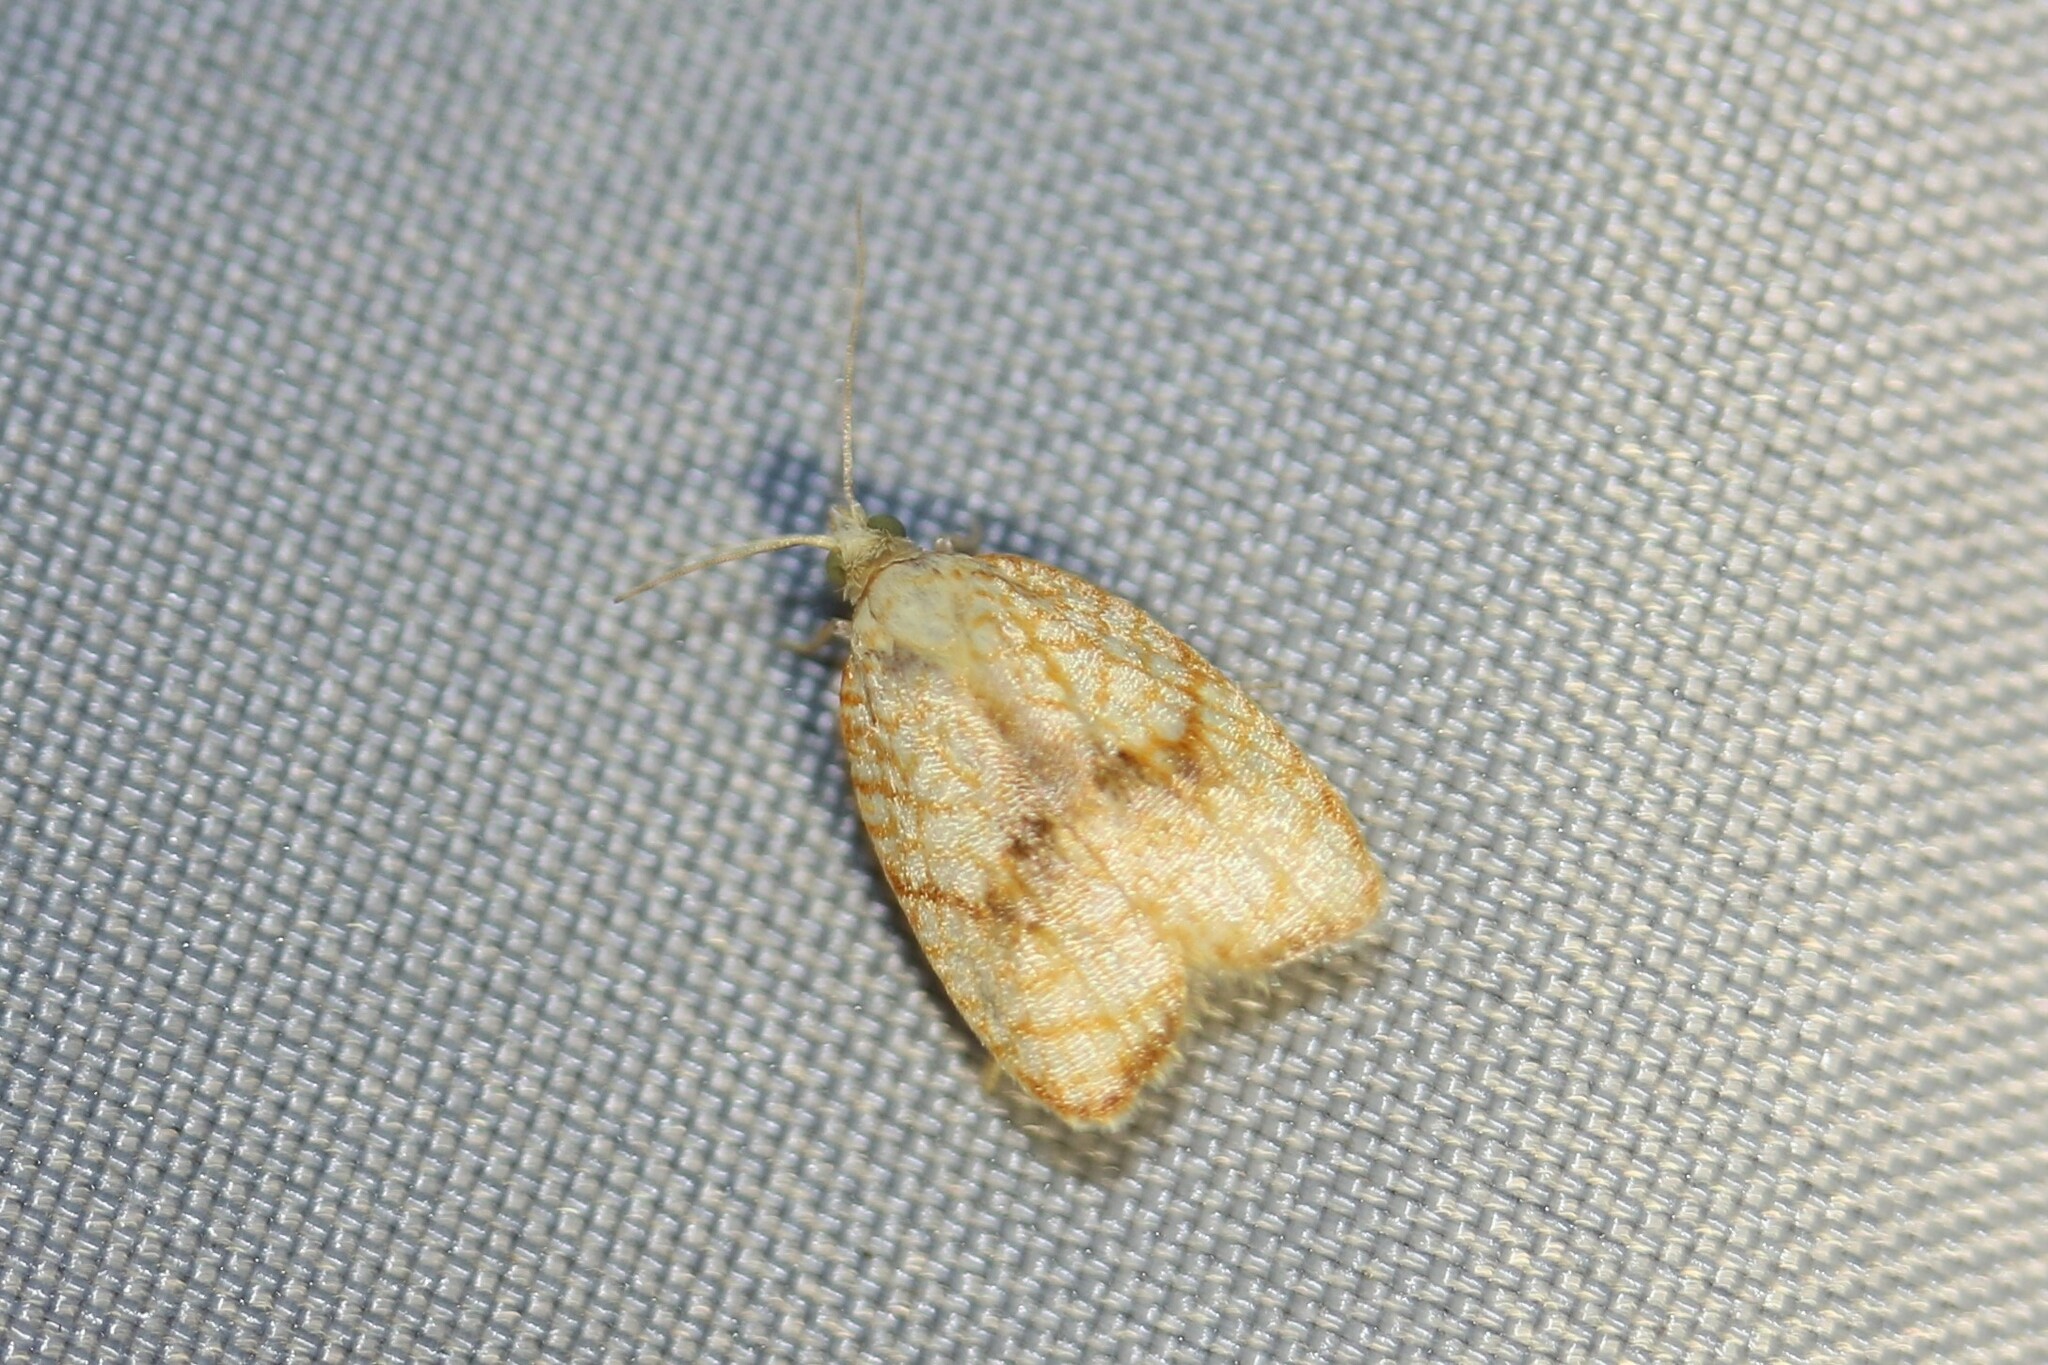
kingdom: Animalia
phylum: Arthropoda
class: Insecta
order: Lepidoptera
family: Tortricidae
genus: Acleris
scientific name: Acleris forsskaleana
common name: Maple button
